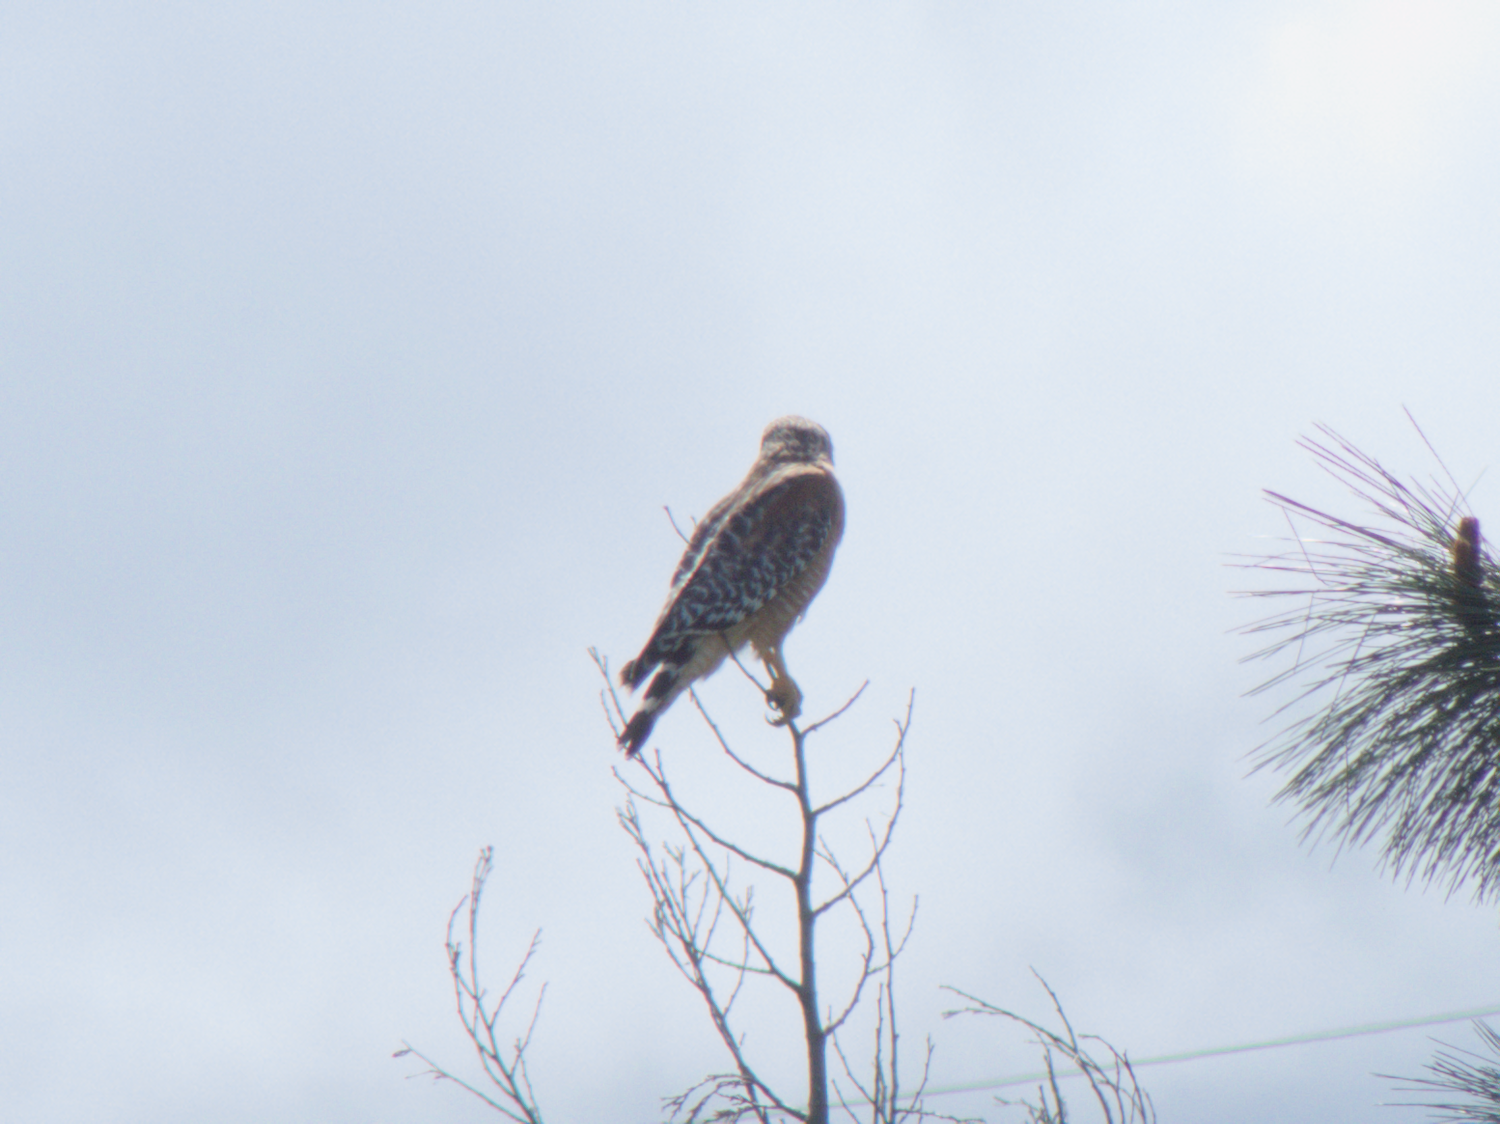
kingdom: Animalia
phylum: Chordata
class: Aves
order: Accipitriformes
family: Accipitridae
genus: Buteo
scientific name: Buteo lineatus
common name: Red-shouldered hawk
